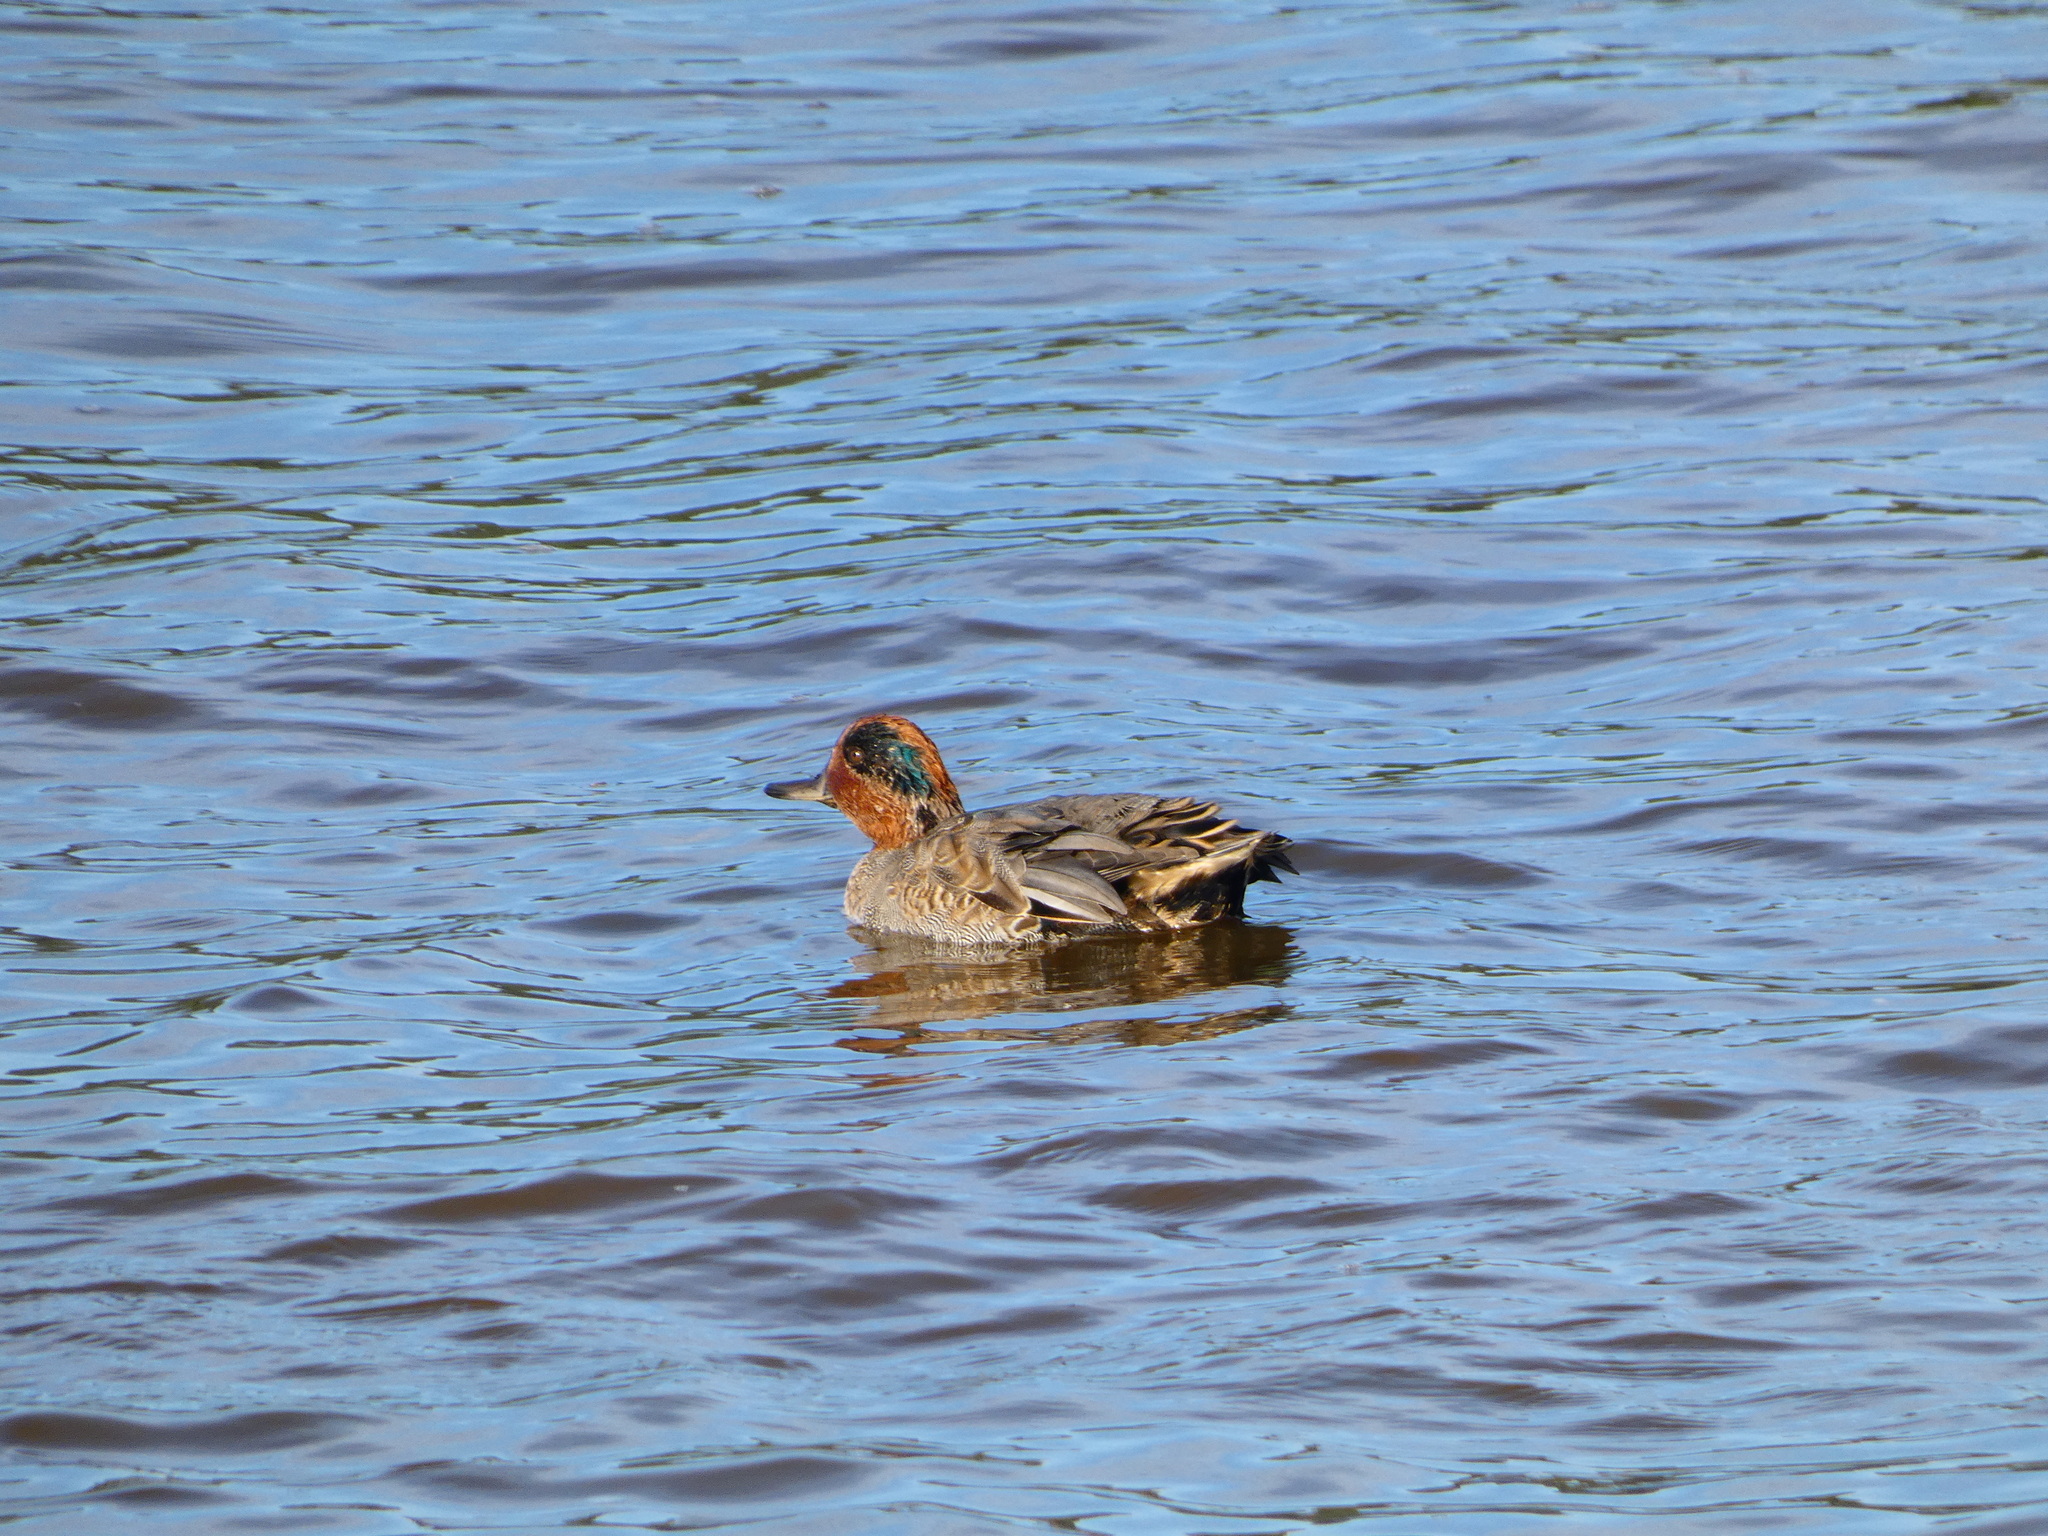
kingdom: Animalia
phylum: Chordata
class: Aves
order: Anseriformes
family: Anatidae
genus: Anas
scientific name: Anas crecca
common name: Eurasian teal
